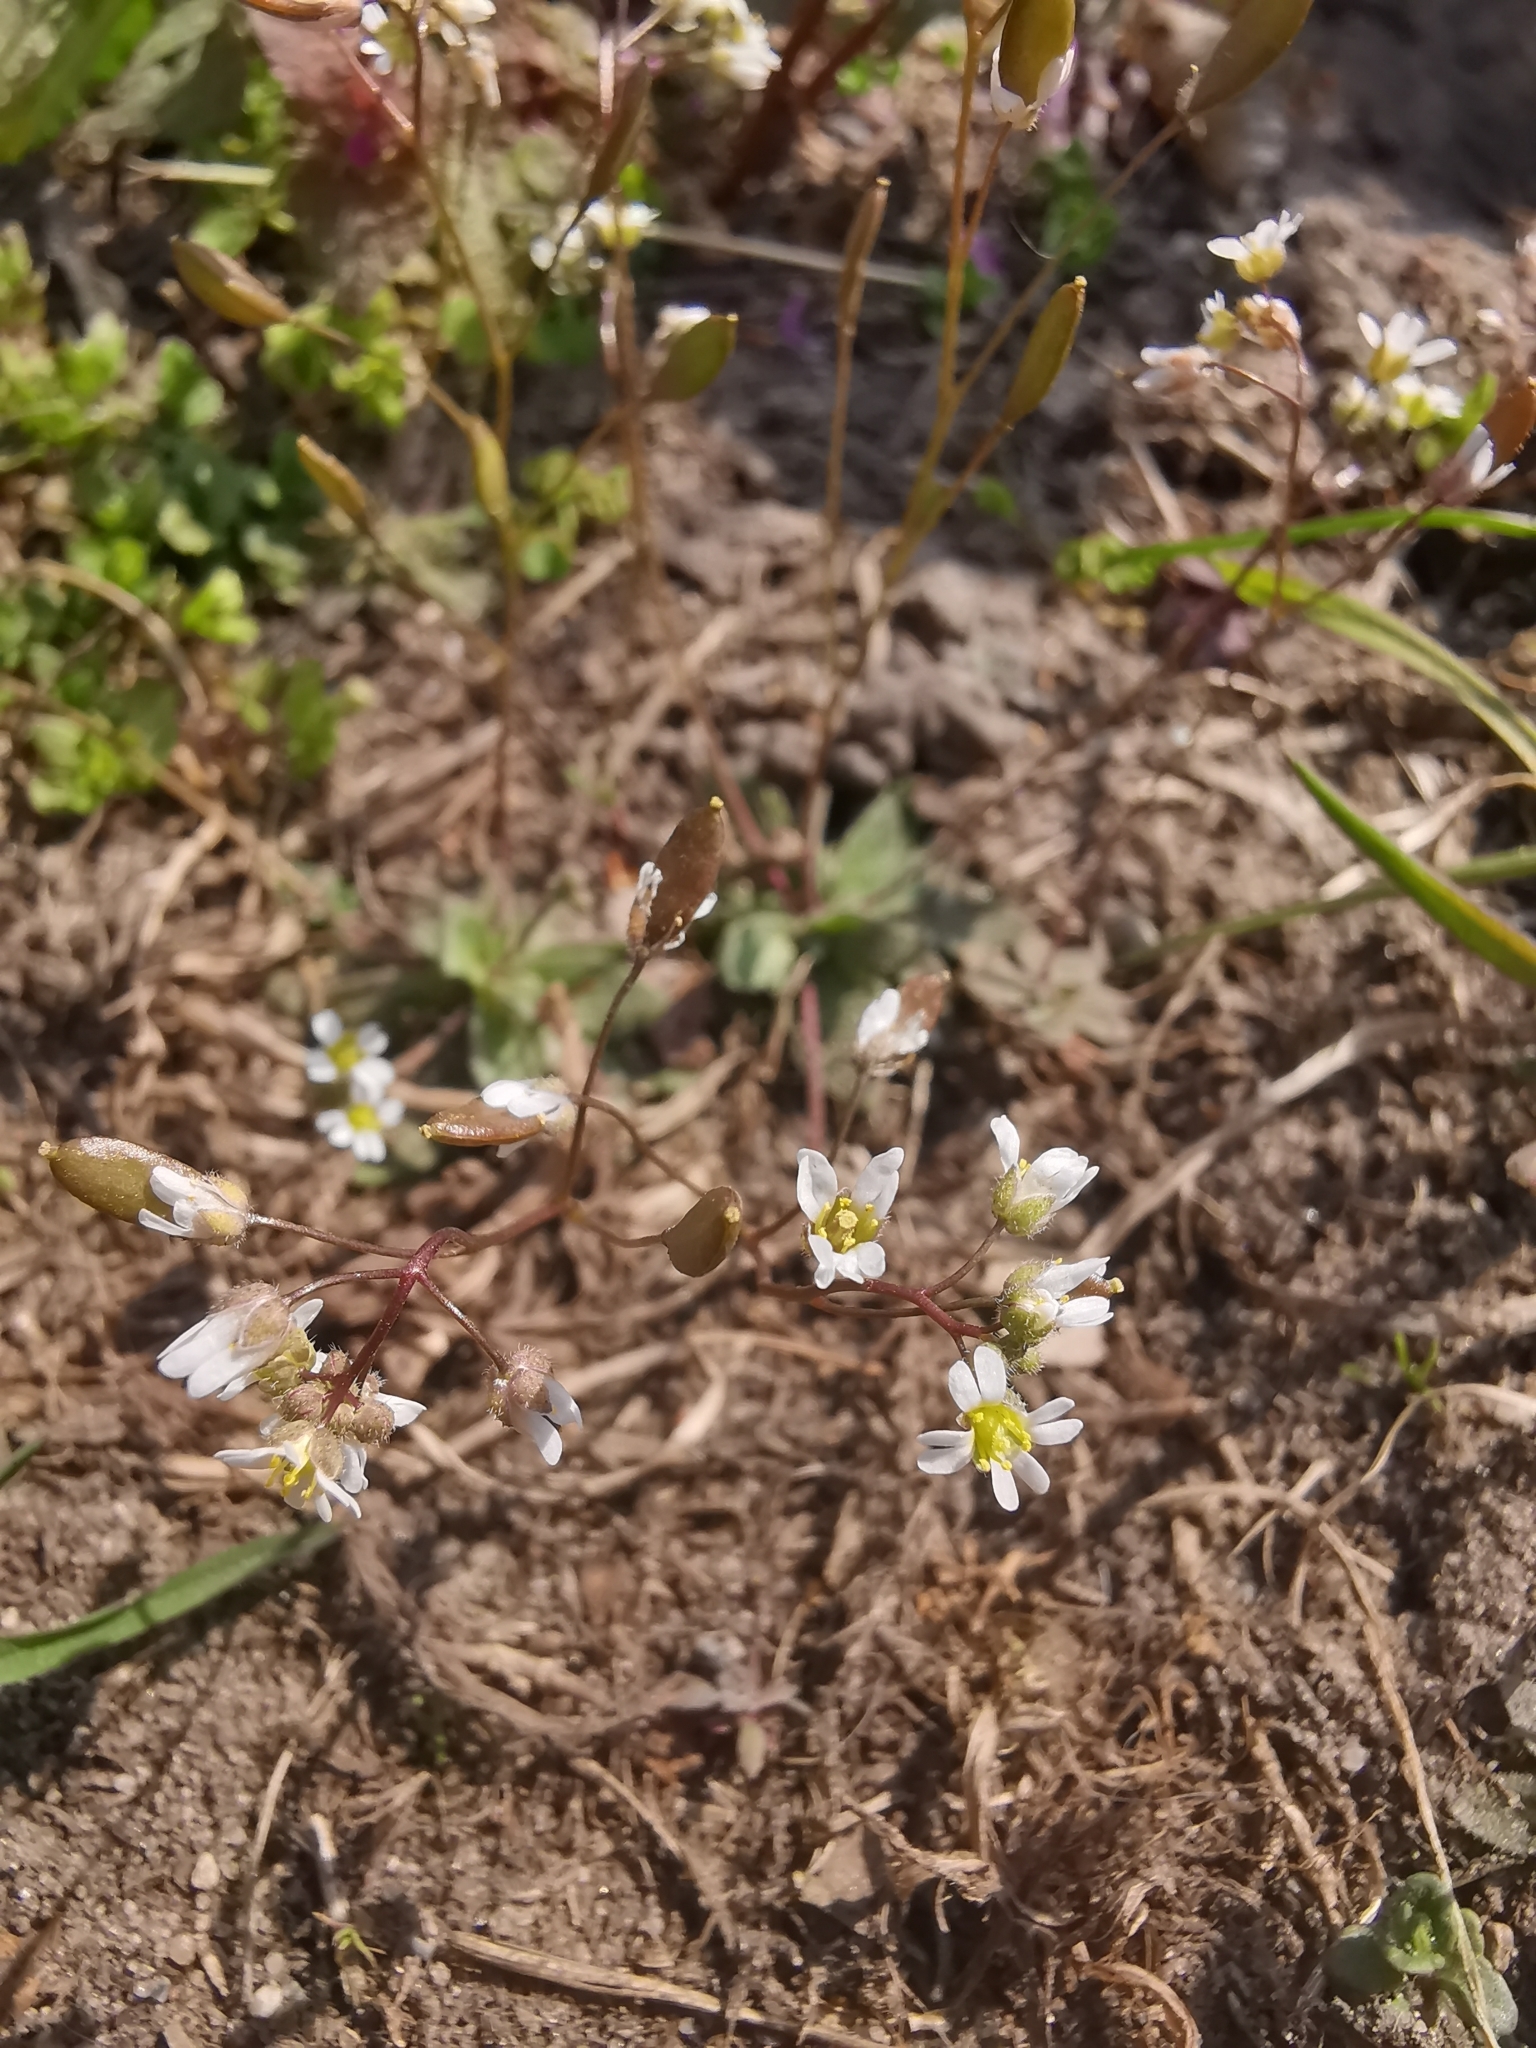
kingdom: Plantae
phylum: Tracheophyta
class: Magnoliopsida
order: Brassicales
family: Brassicaceae
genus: Draba
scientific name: Draba verna
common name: Spring draba
